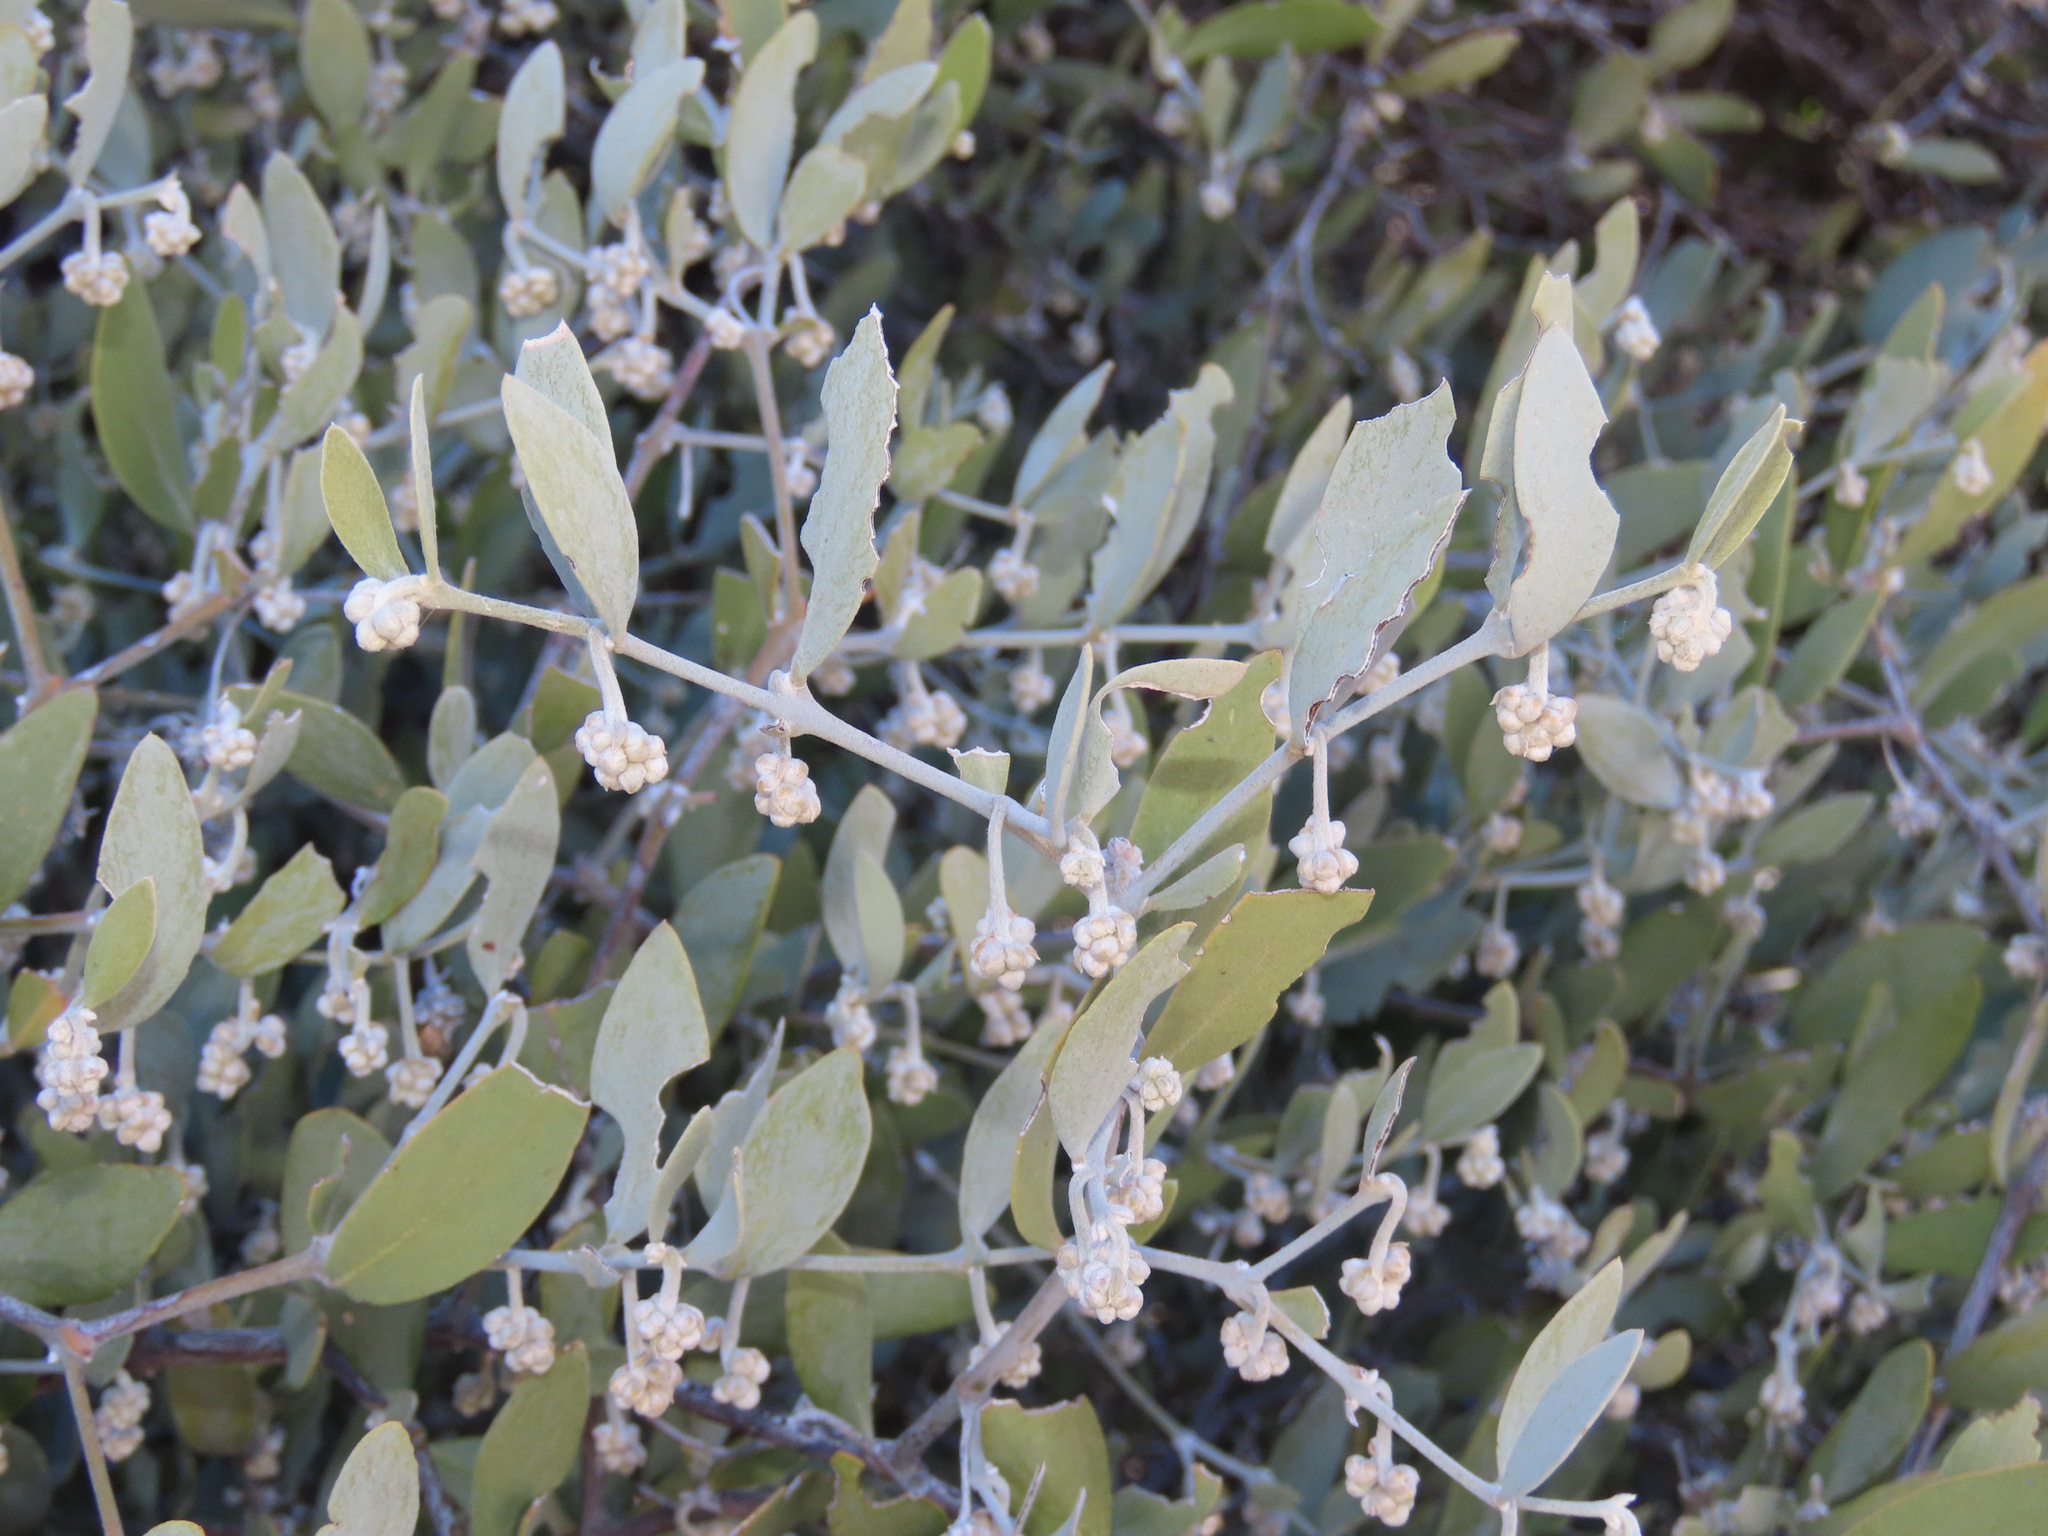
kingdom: Plantae
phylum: Tracheophyta
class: Magnoliopsida
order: Caryophyllales
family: Simmondsiaceae
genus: Simmondsia
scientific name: Simmondsia chinensis
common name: Jojoba
